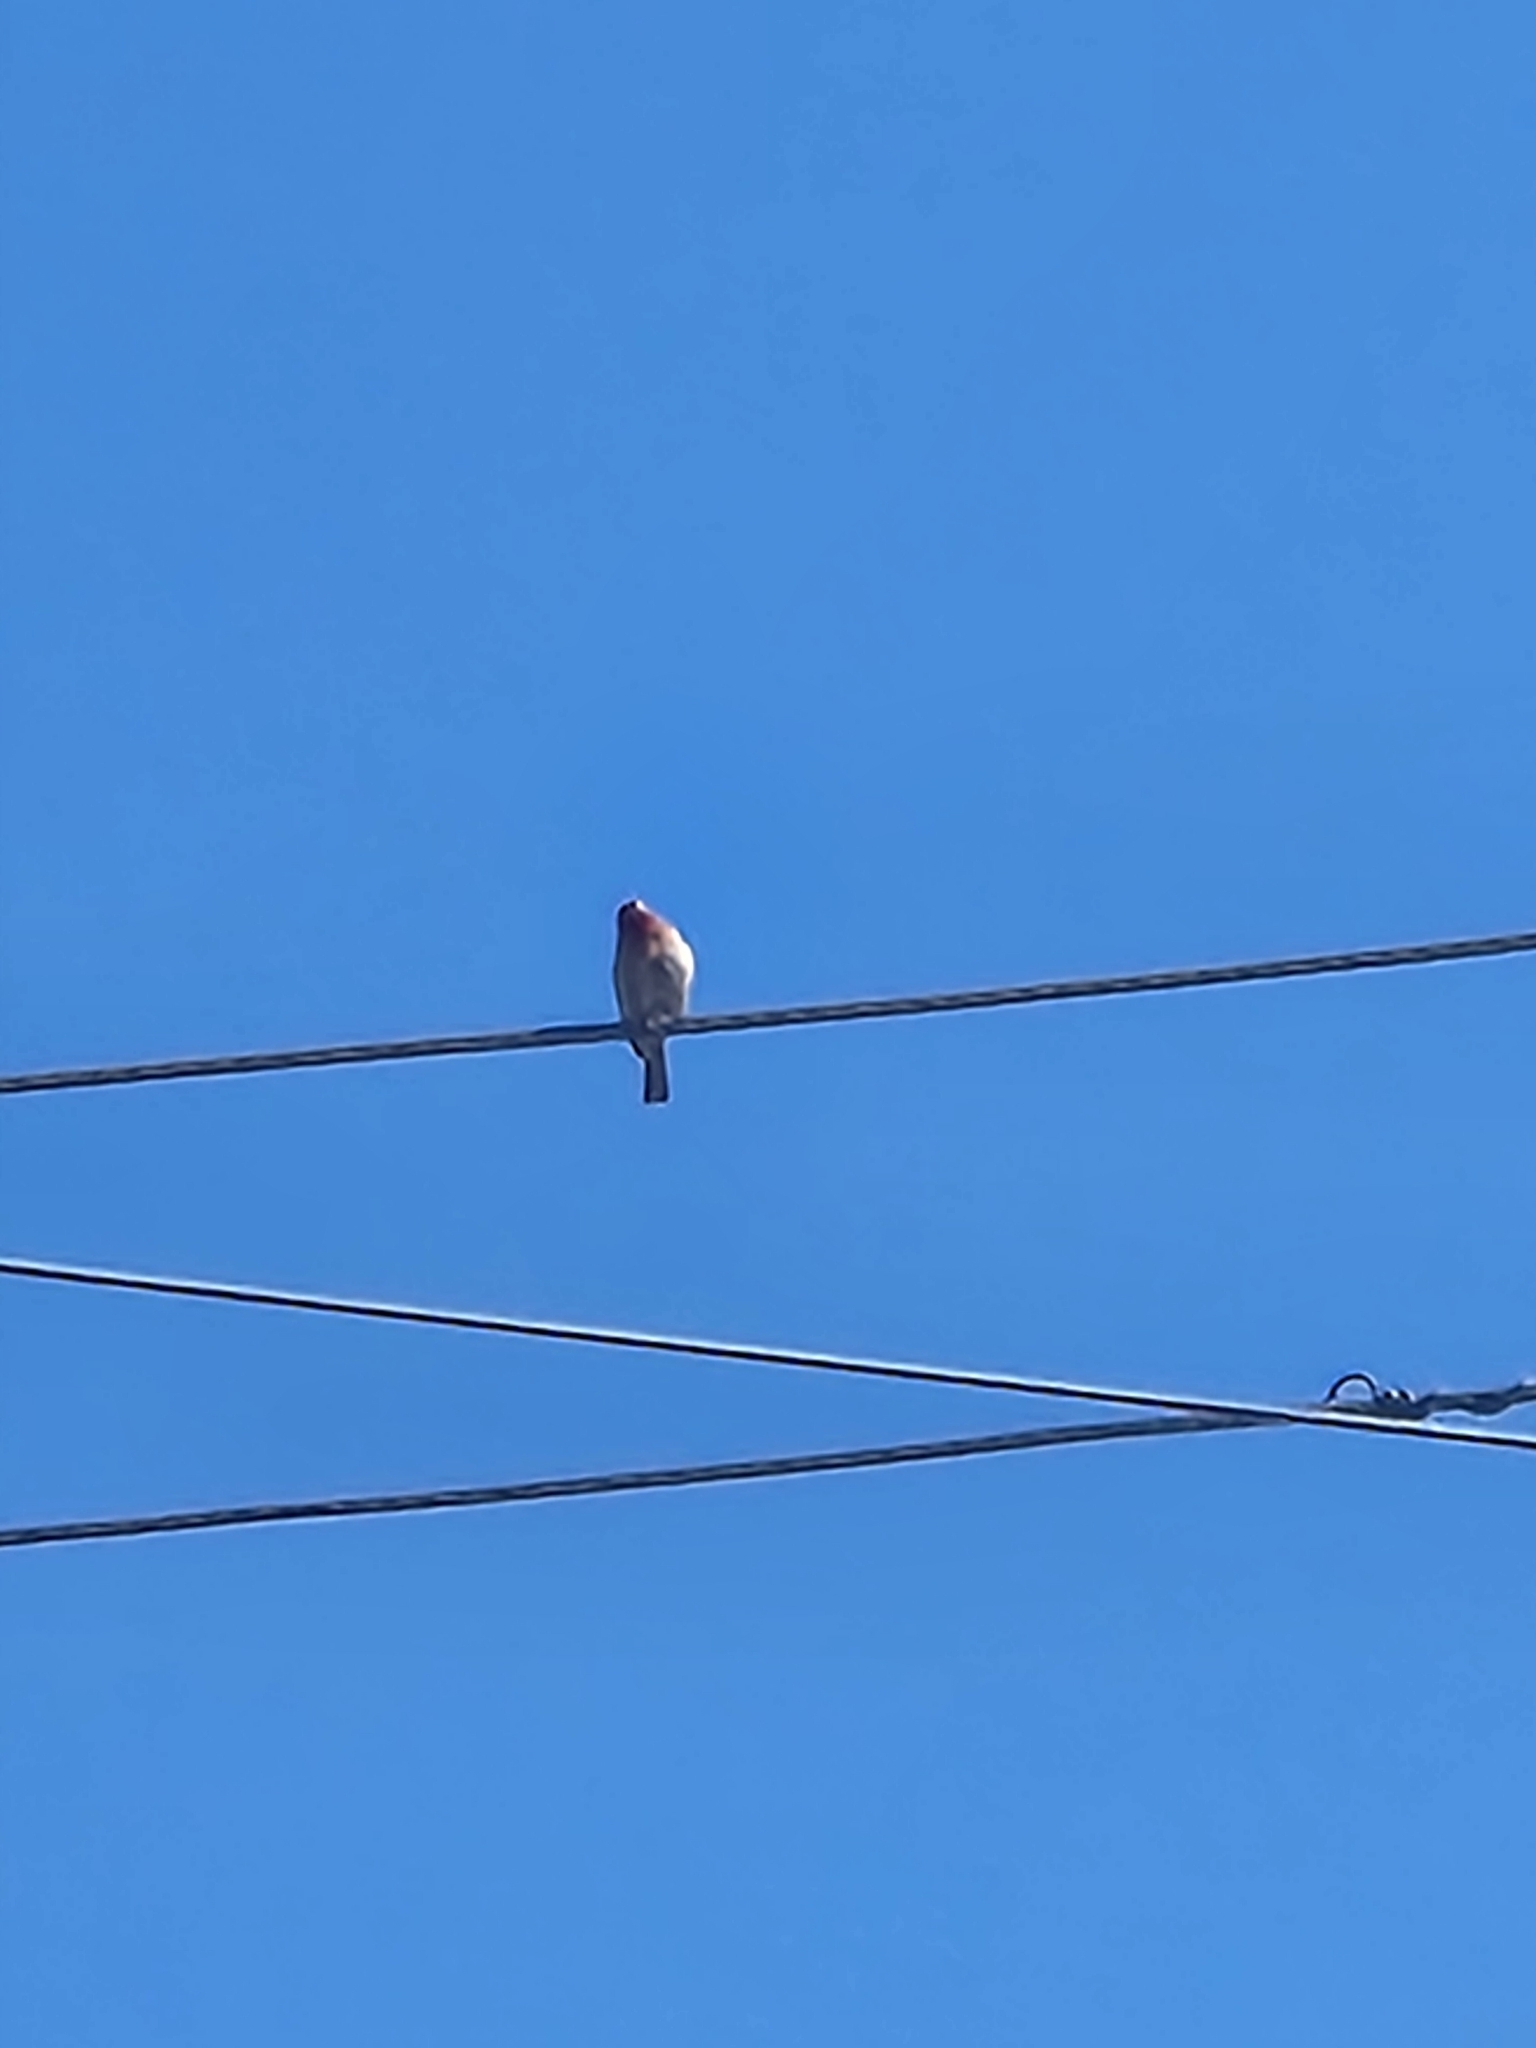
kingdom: Animalia
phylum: Chordata
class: Aves
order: Passeriformes
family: Fringillidae
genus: Haemorhous
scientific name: Haemorhous mexicanus
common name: House finch
